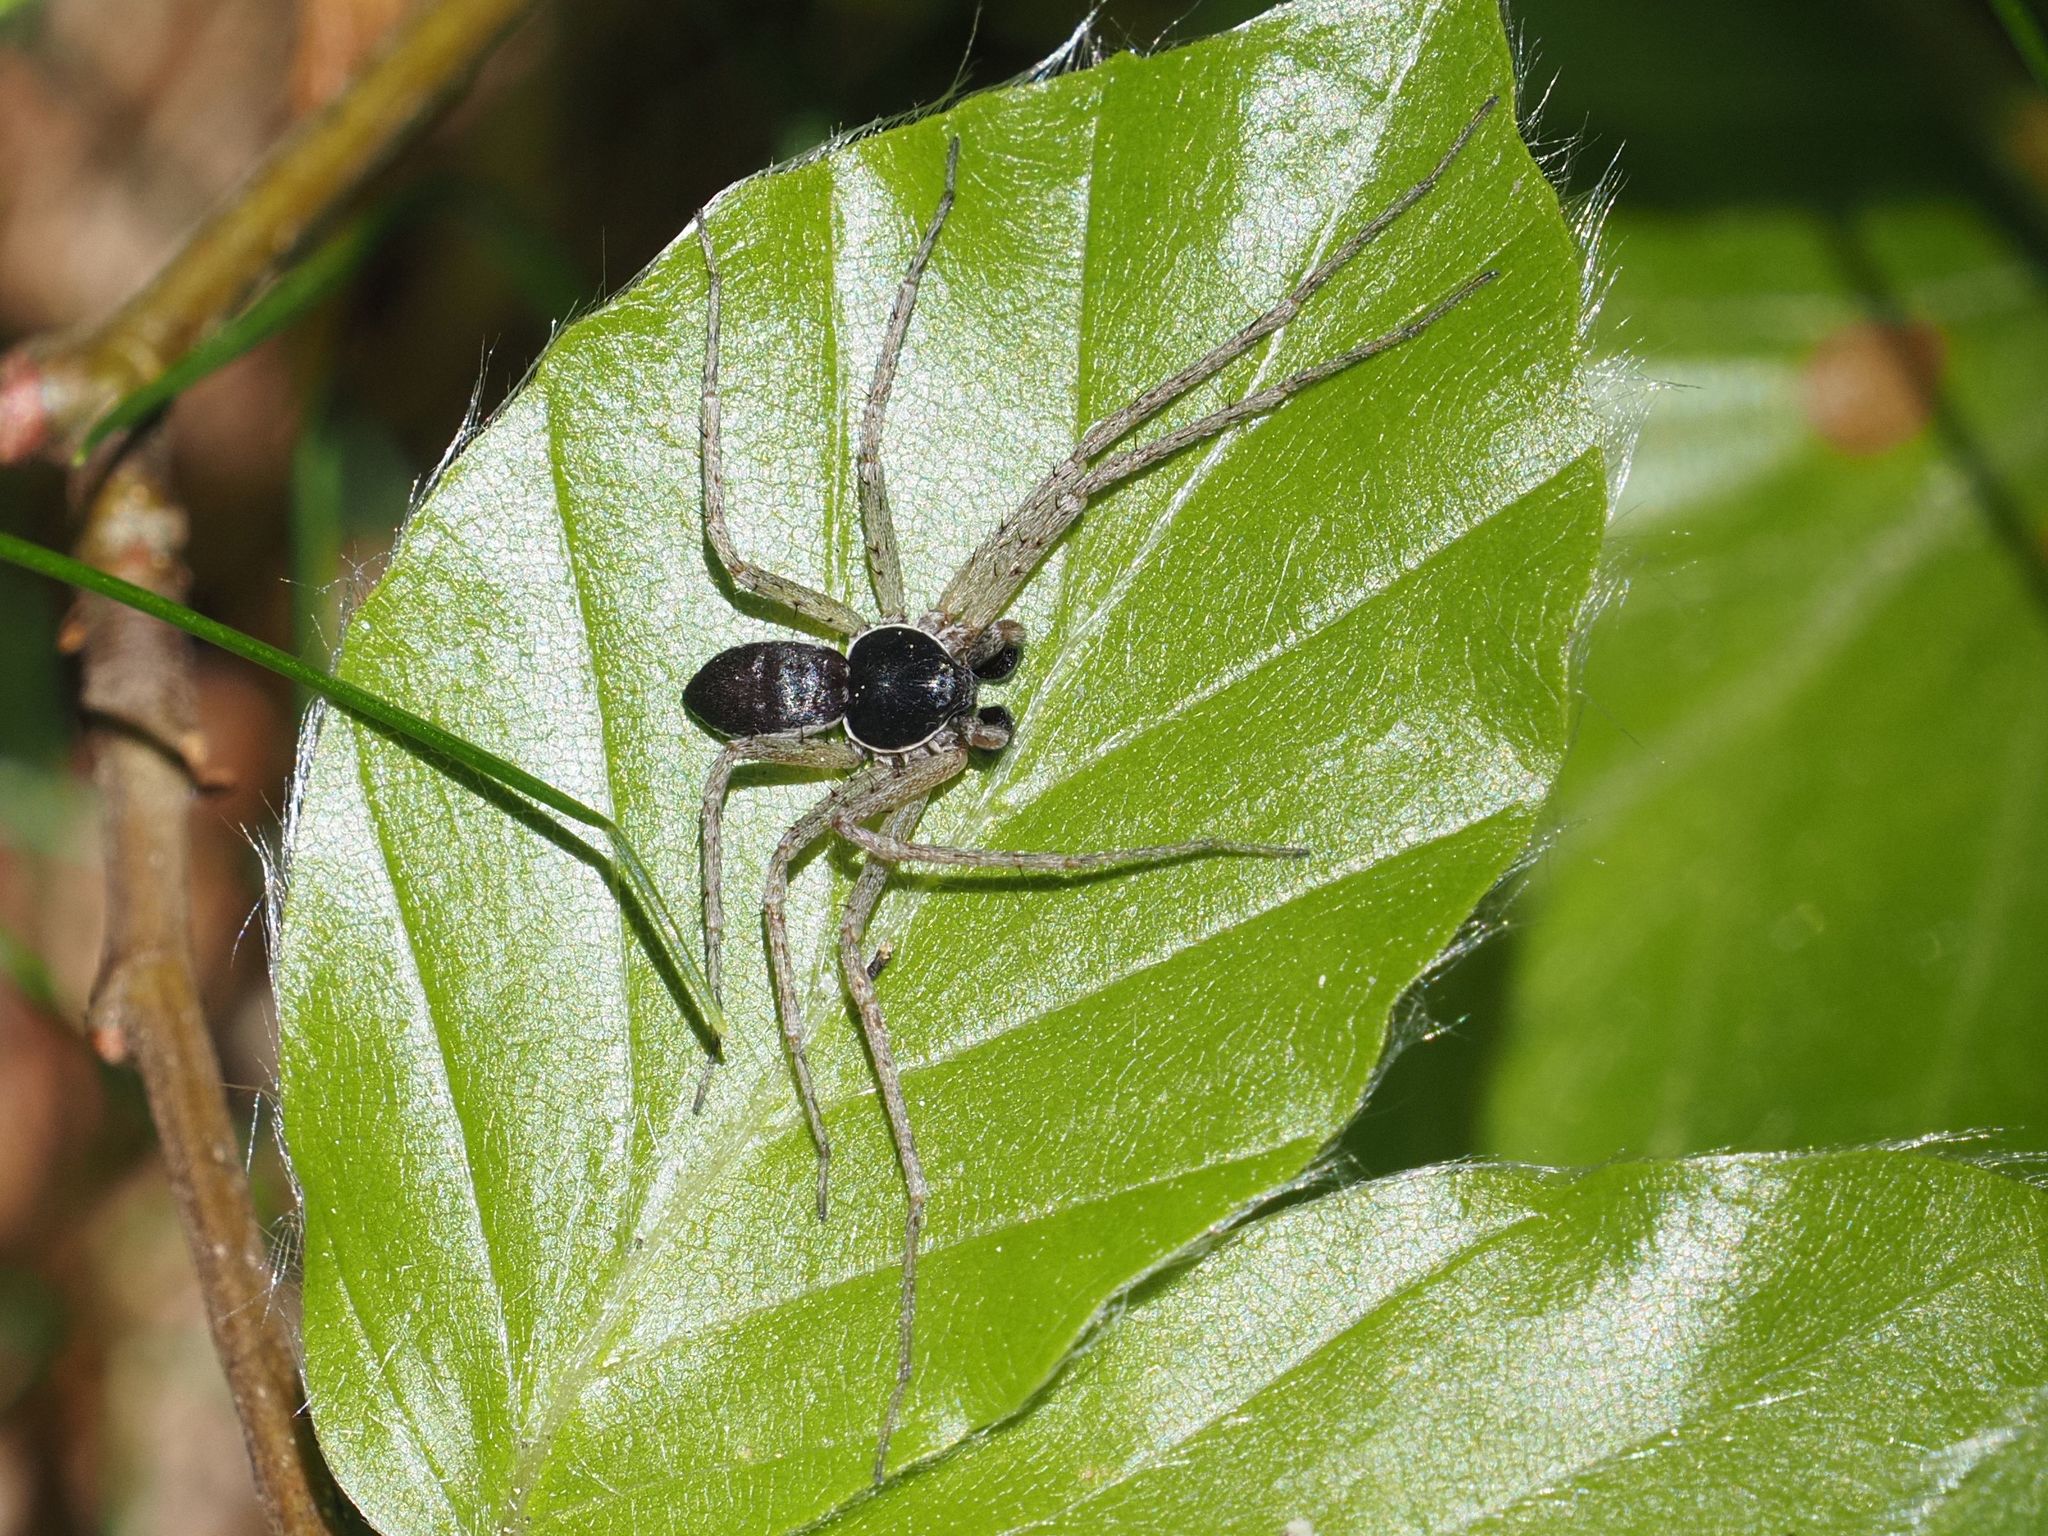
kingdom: Animalia
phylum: Arthropoda
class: Arachnida
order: Araneae
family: Philodromidae
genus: Philodromus
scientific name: Philodromus dispar
